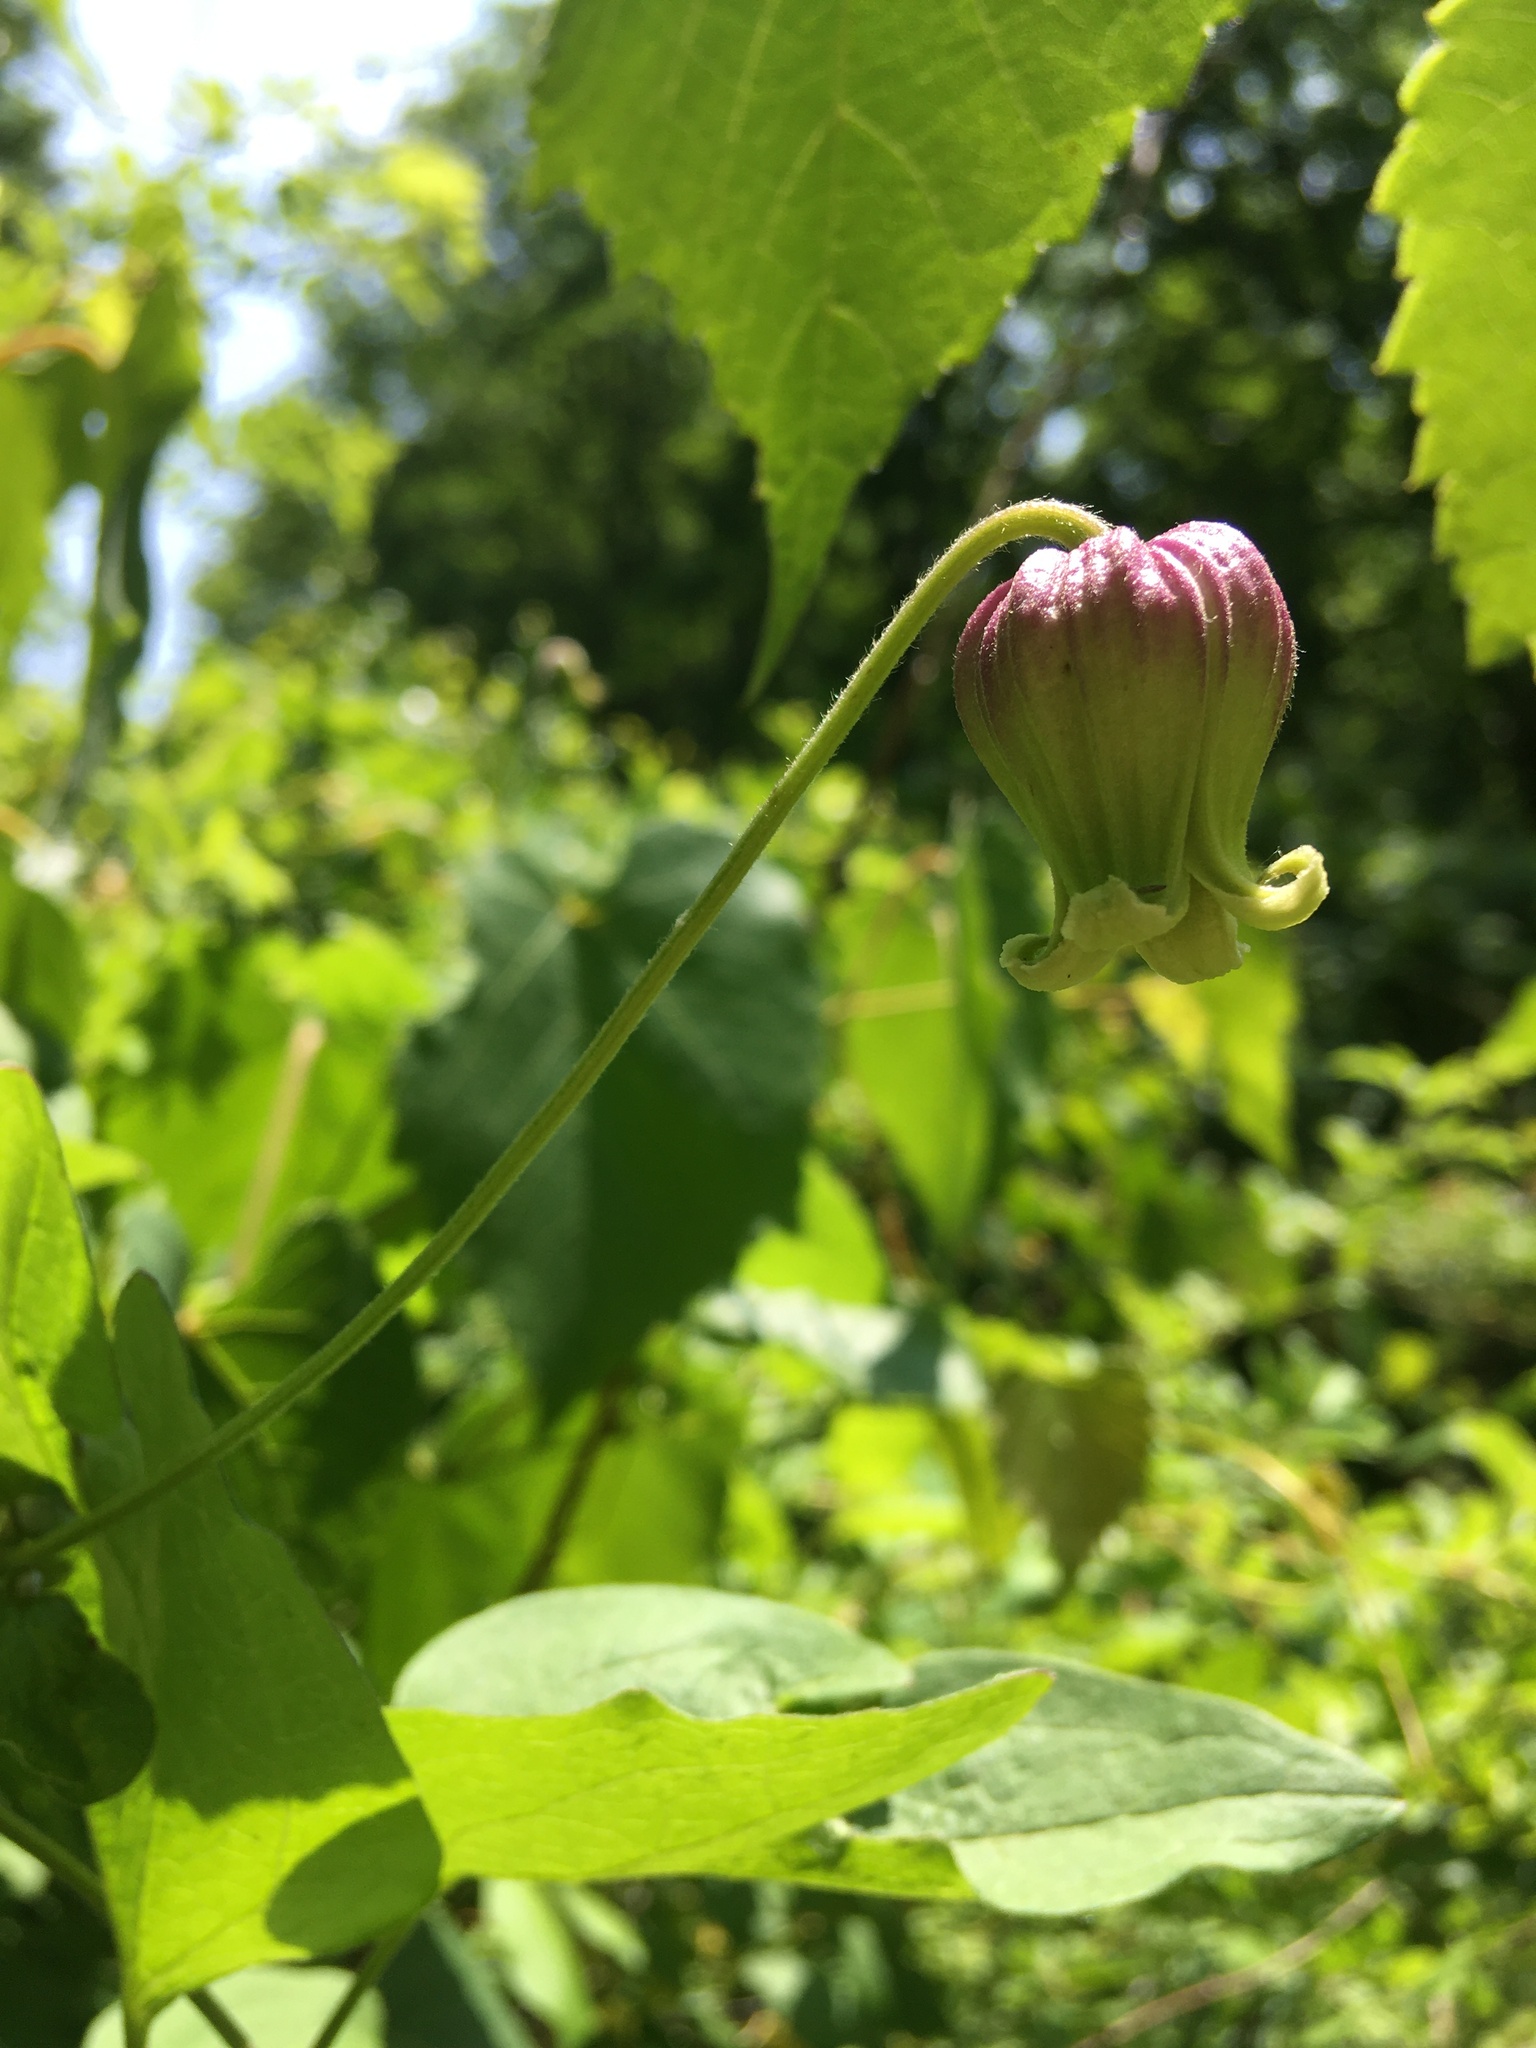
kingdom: Plantae
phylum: Tracheophyta
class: Magnoliopsida
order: Ranunculales
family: Ranunculaceae
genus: Clematis
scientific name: Clematis pitcheri
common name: Bellflower clematis
